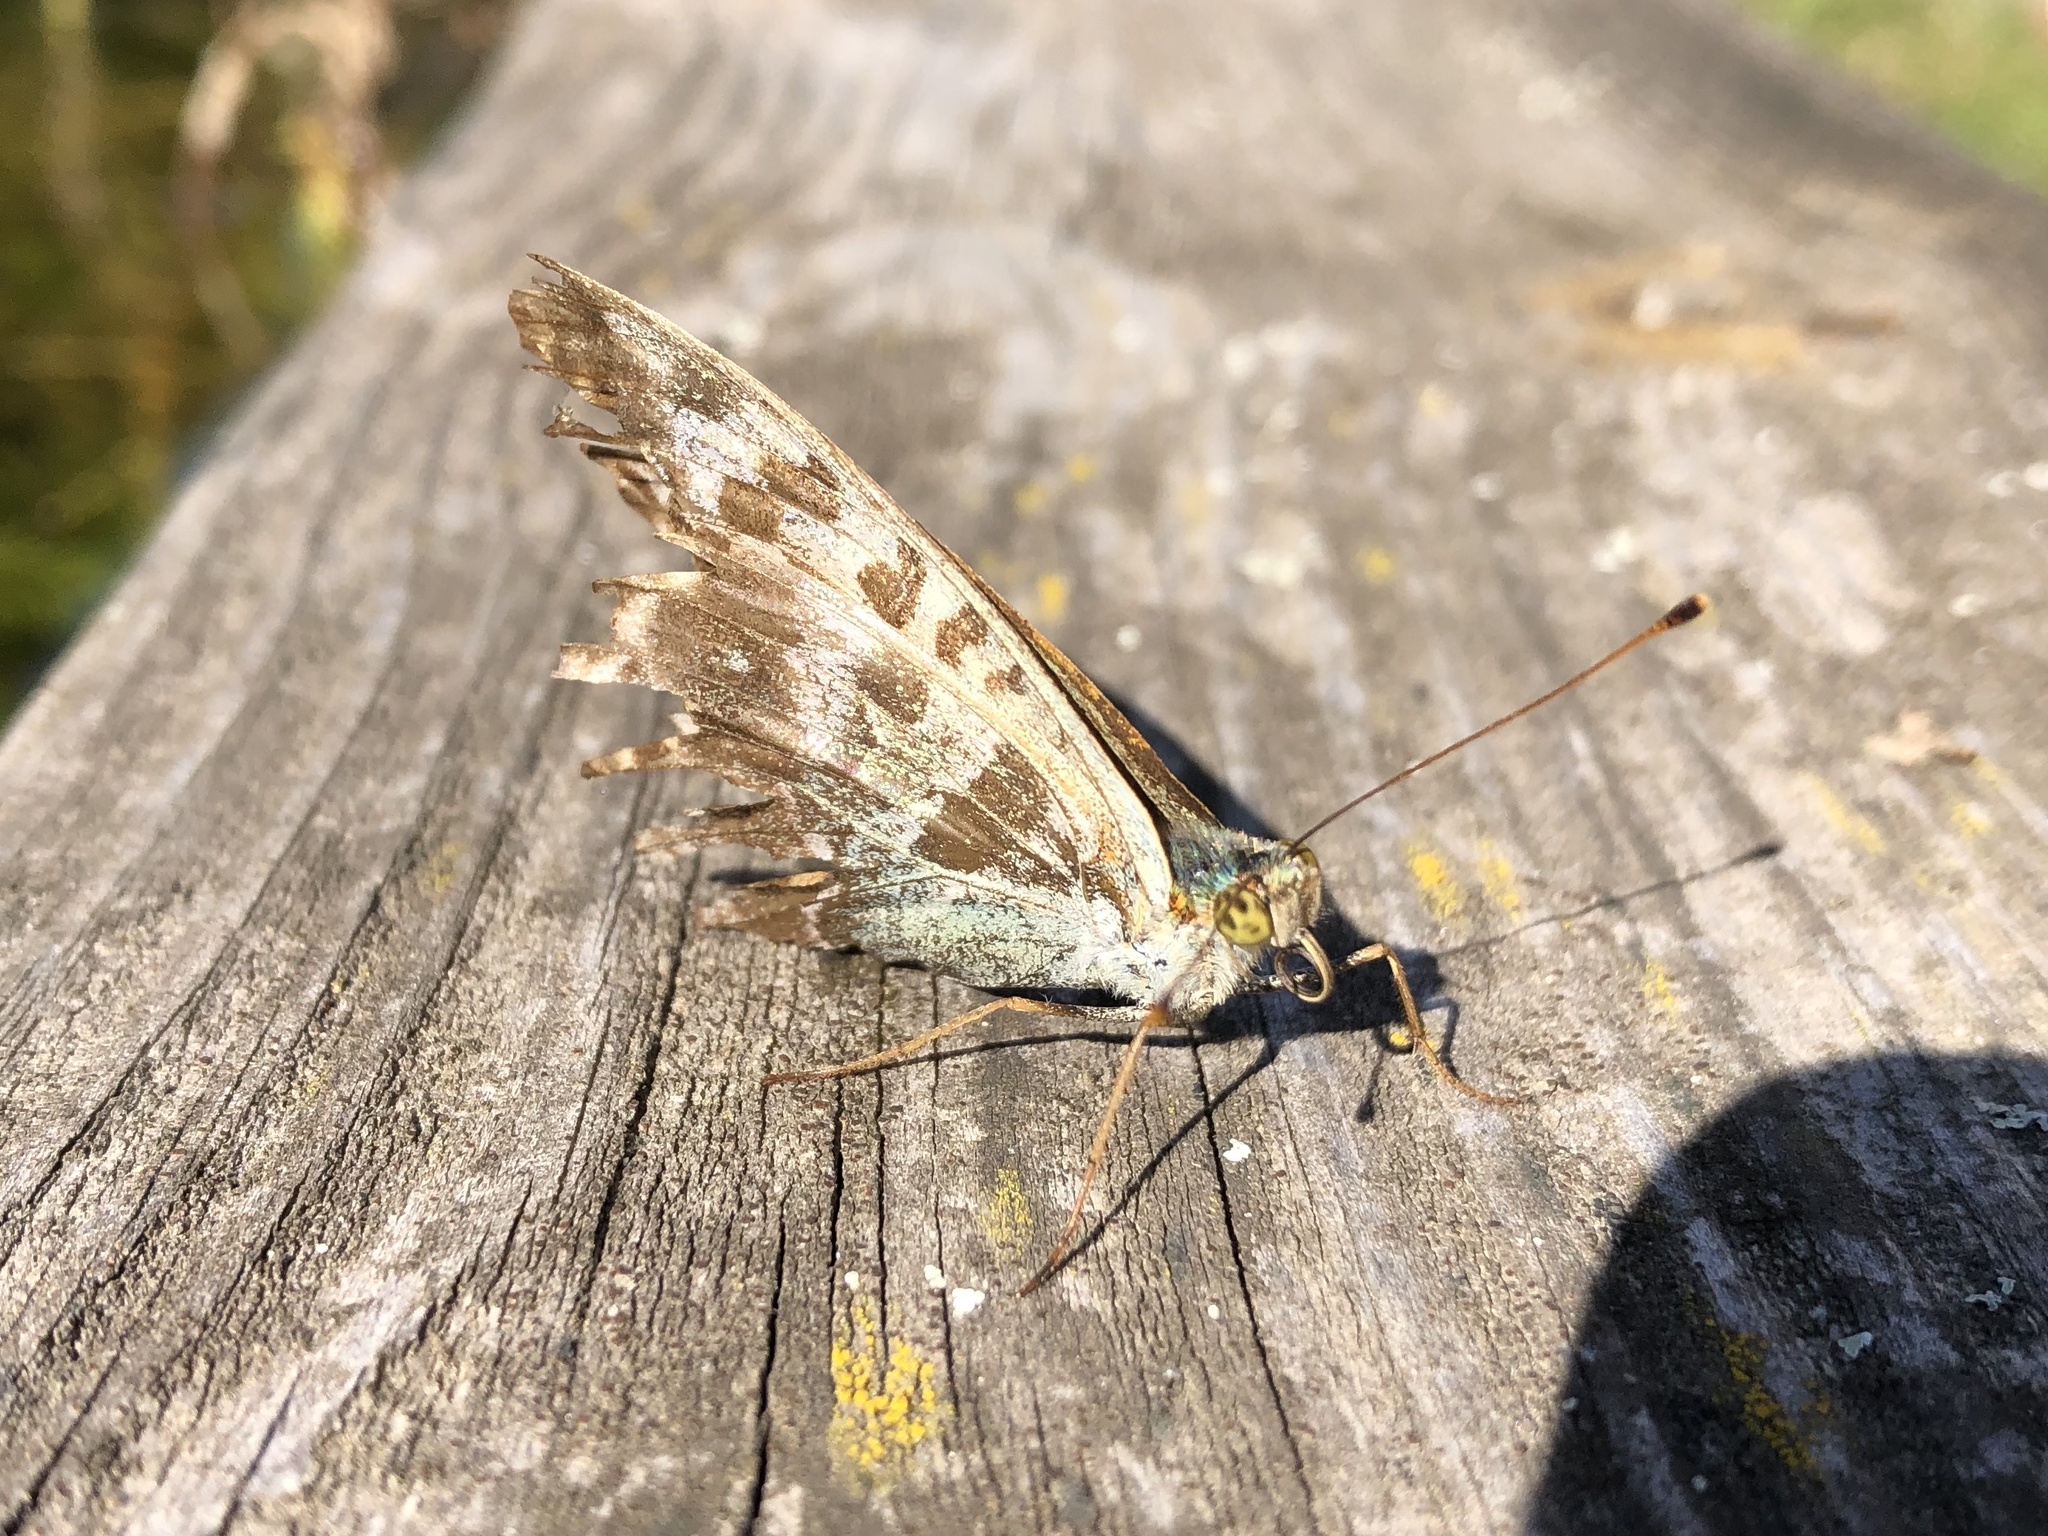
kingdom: Animalia
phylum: Arthropoda
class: Insecta
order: Lepidoptera
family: Nymphalidae
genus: Argynnis
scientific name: Argynnis paphia
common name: Silver-washed fritillary
